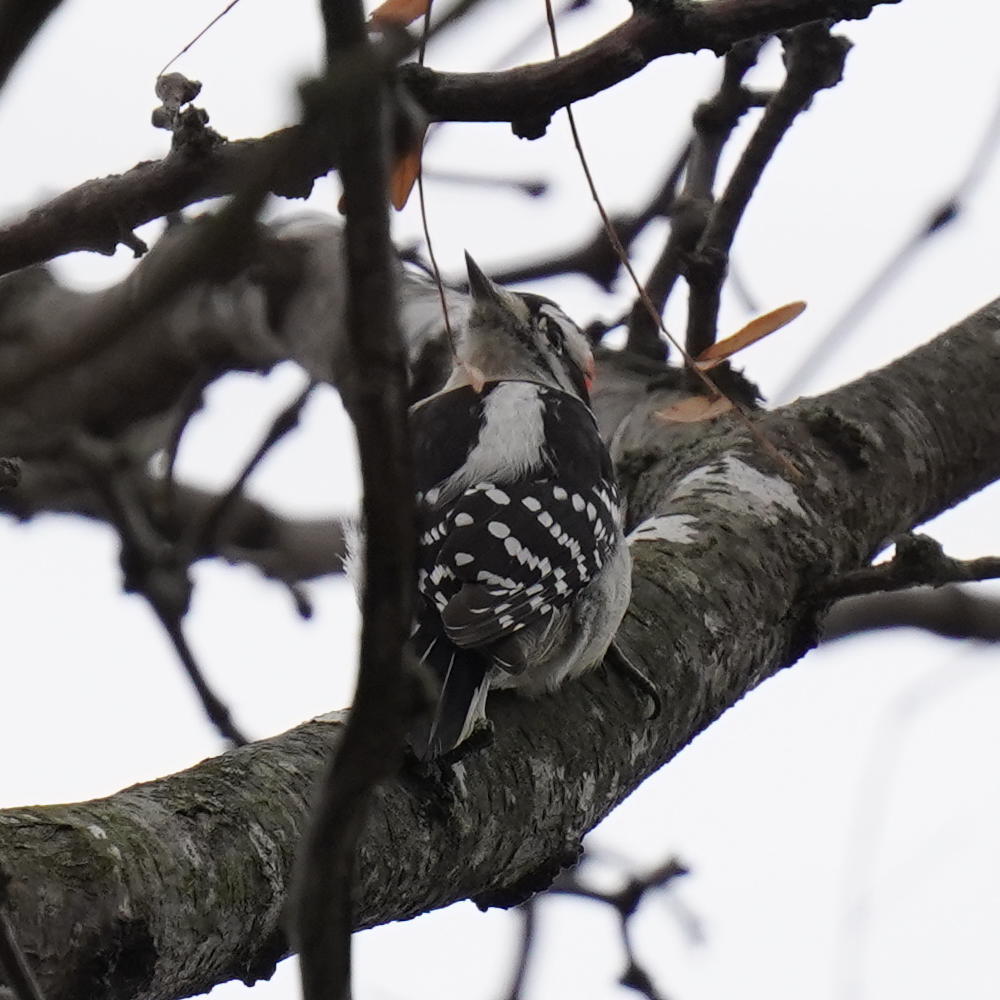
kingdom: Animalia
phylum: Chordata
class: Aves
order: Piciformes
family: Picidae
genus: Dryobates
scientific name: Dryobates pubescens
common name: Downy woodpecker
